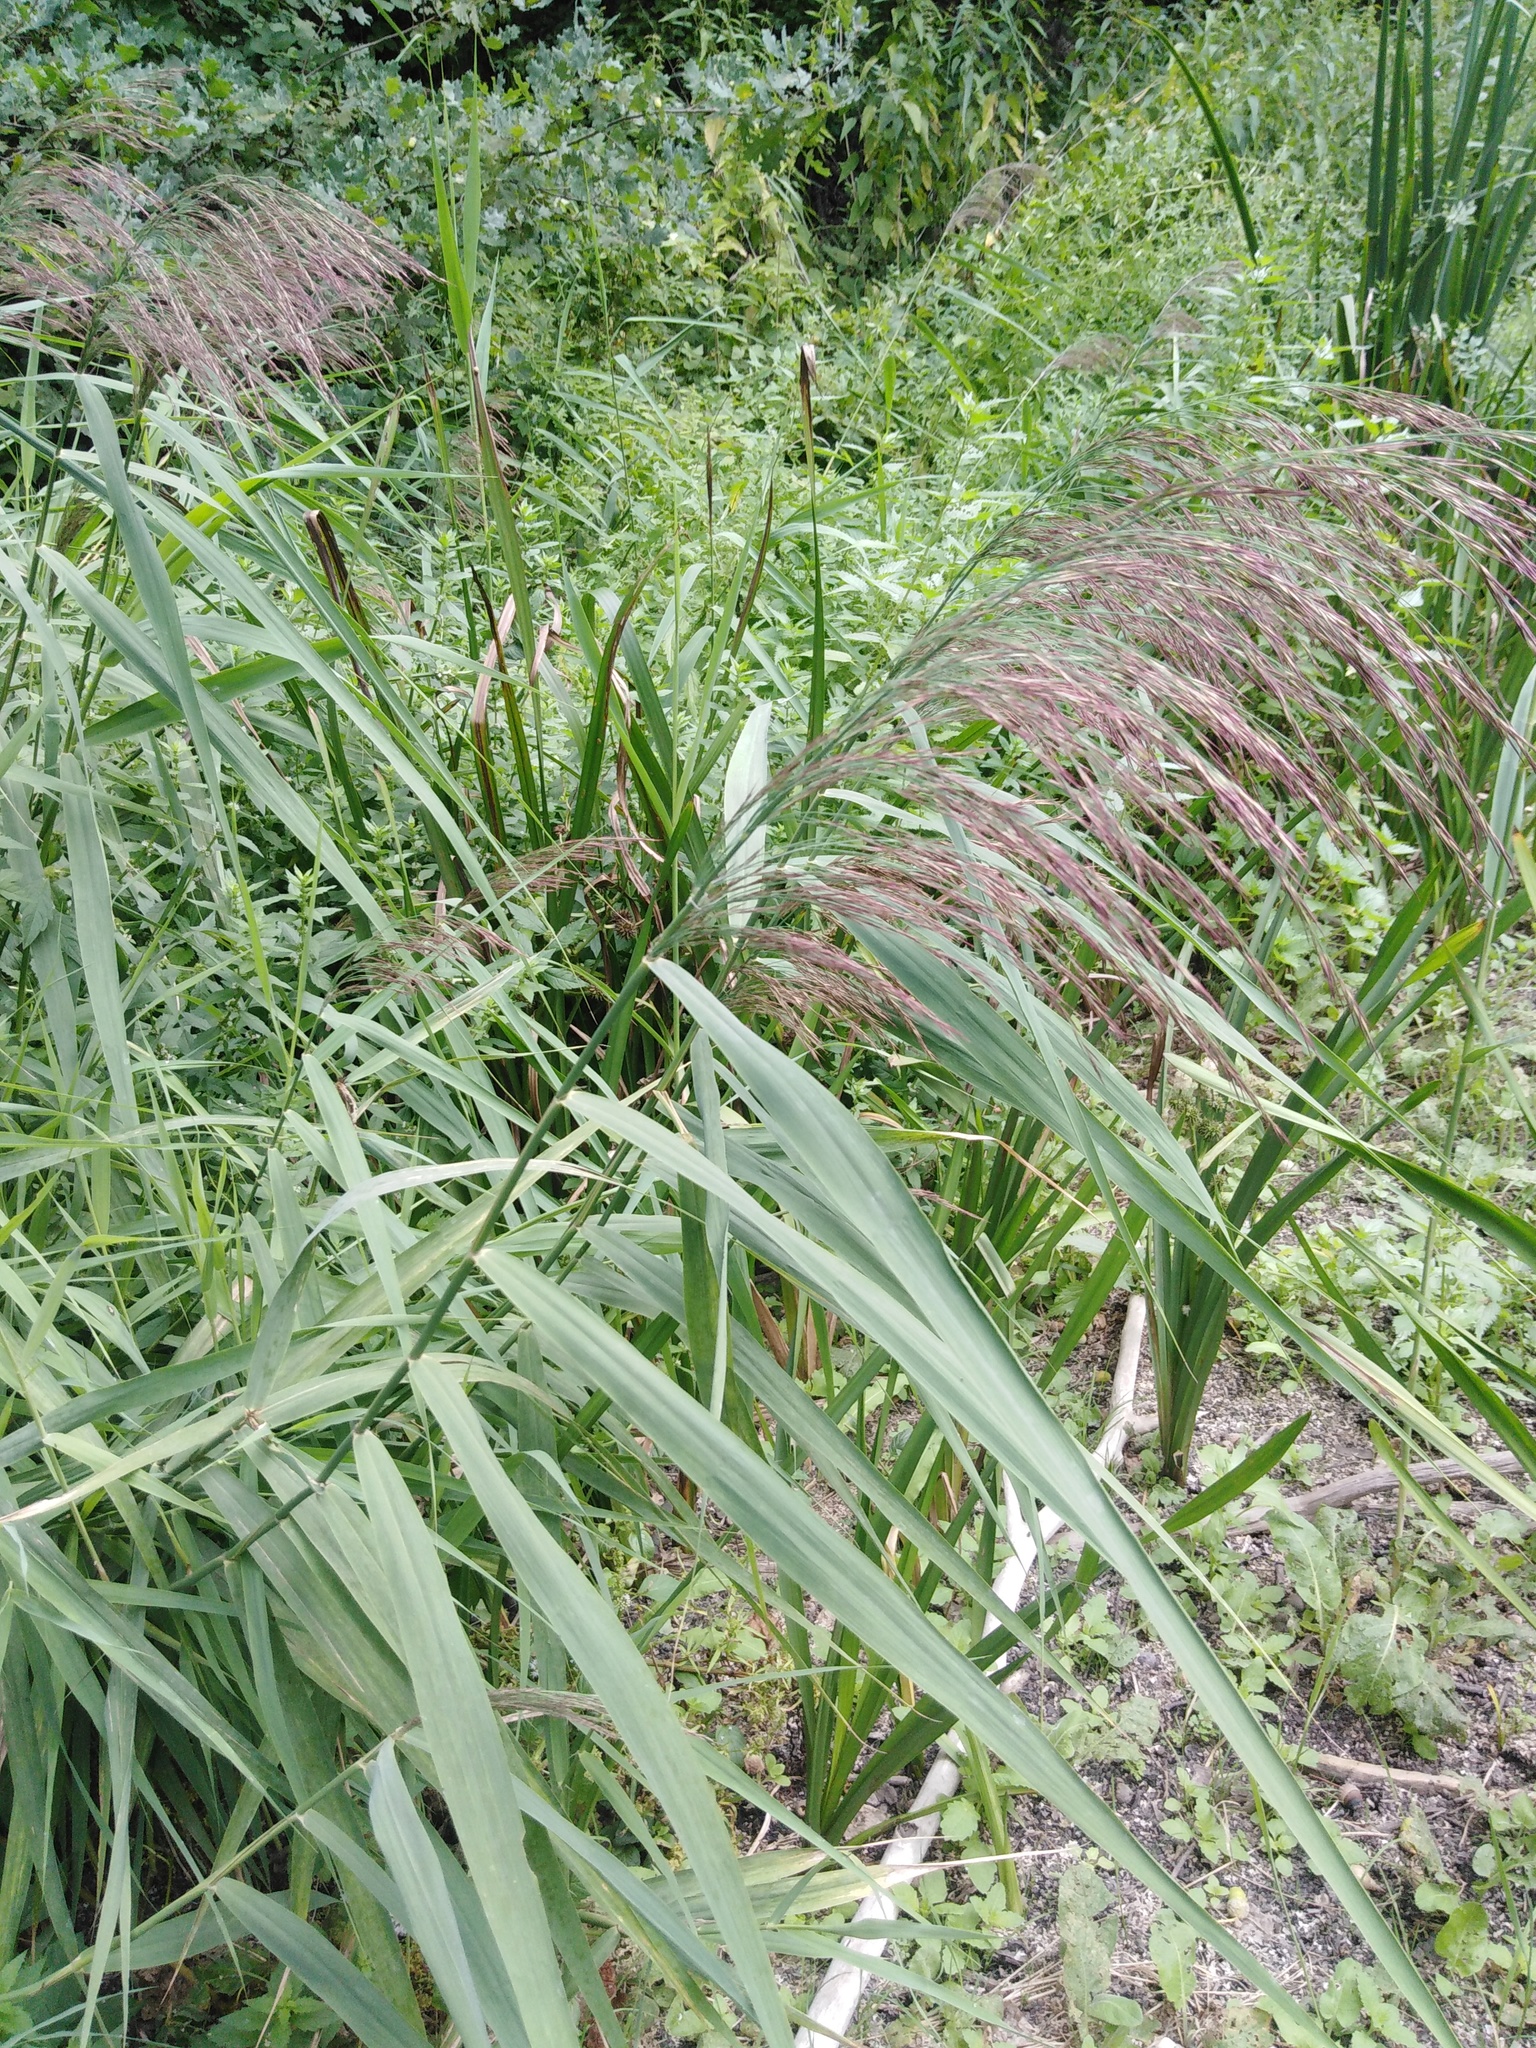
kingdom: Plantae
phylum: Tracheophyta
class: Liliopsida
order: Poales
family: Poaceae
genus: Phragmites
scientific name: Phragmites australis
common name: Common reed
